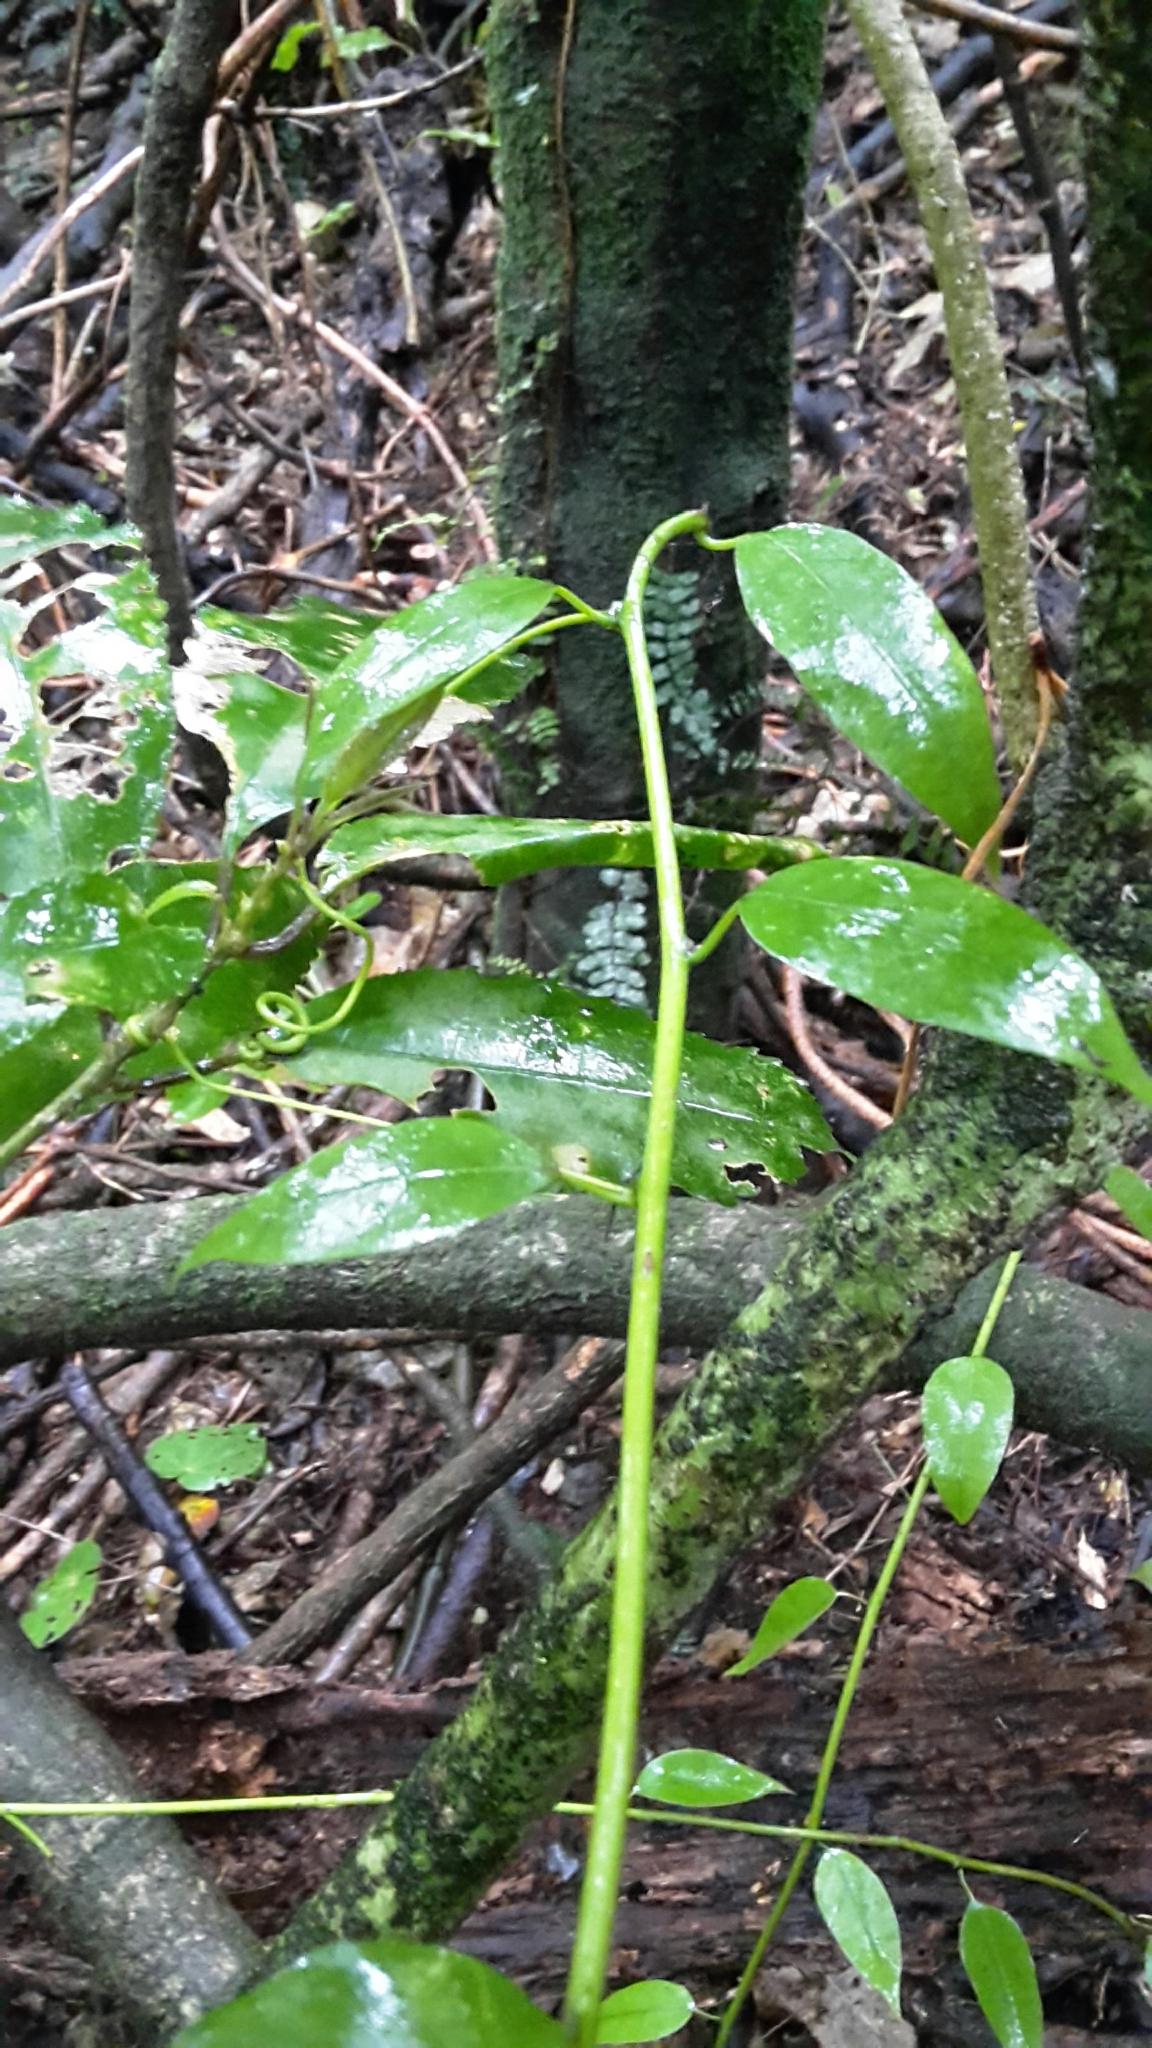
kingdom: Plantae
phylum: Tracheophyta
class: Magnoliopsida
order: Malpighiales
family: Passifloraceae
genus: Passiflora
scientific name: Passiflora tetrandra
